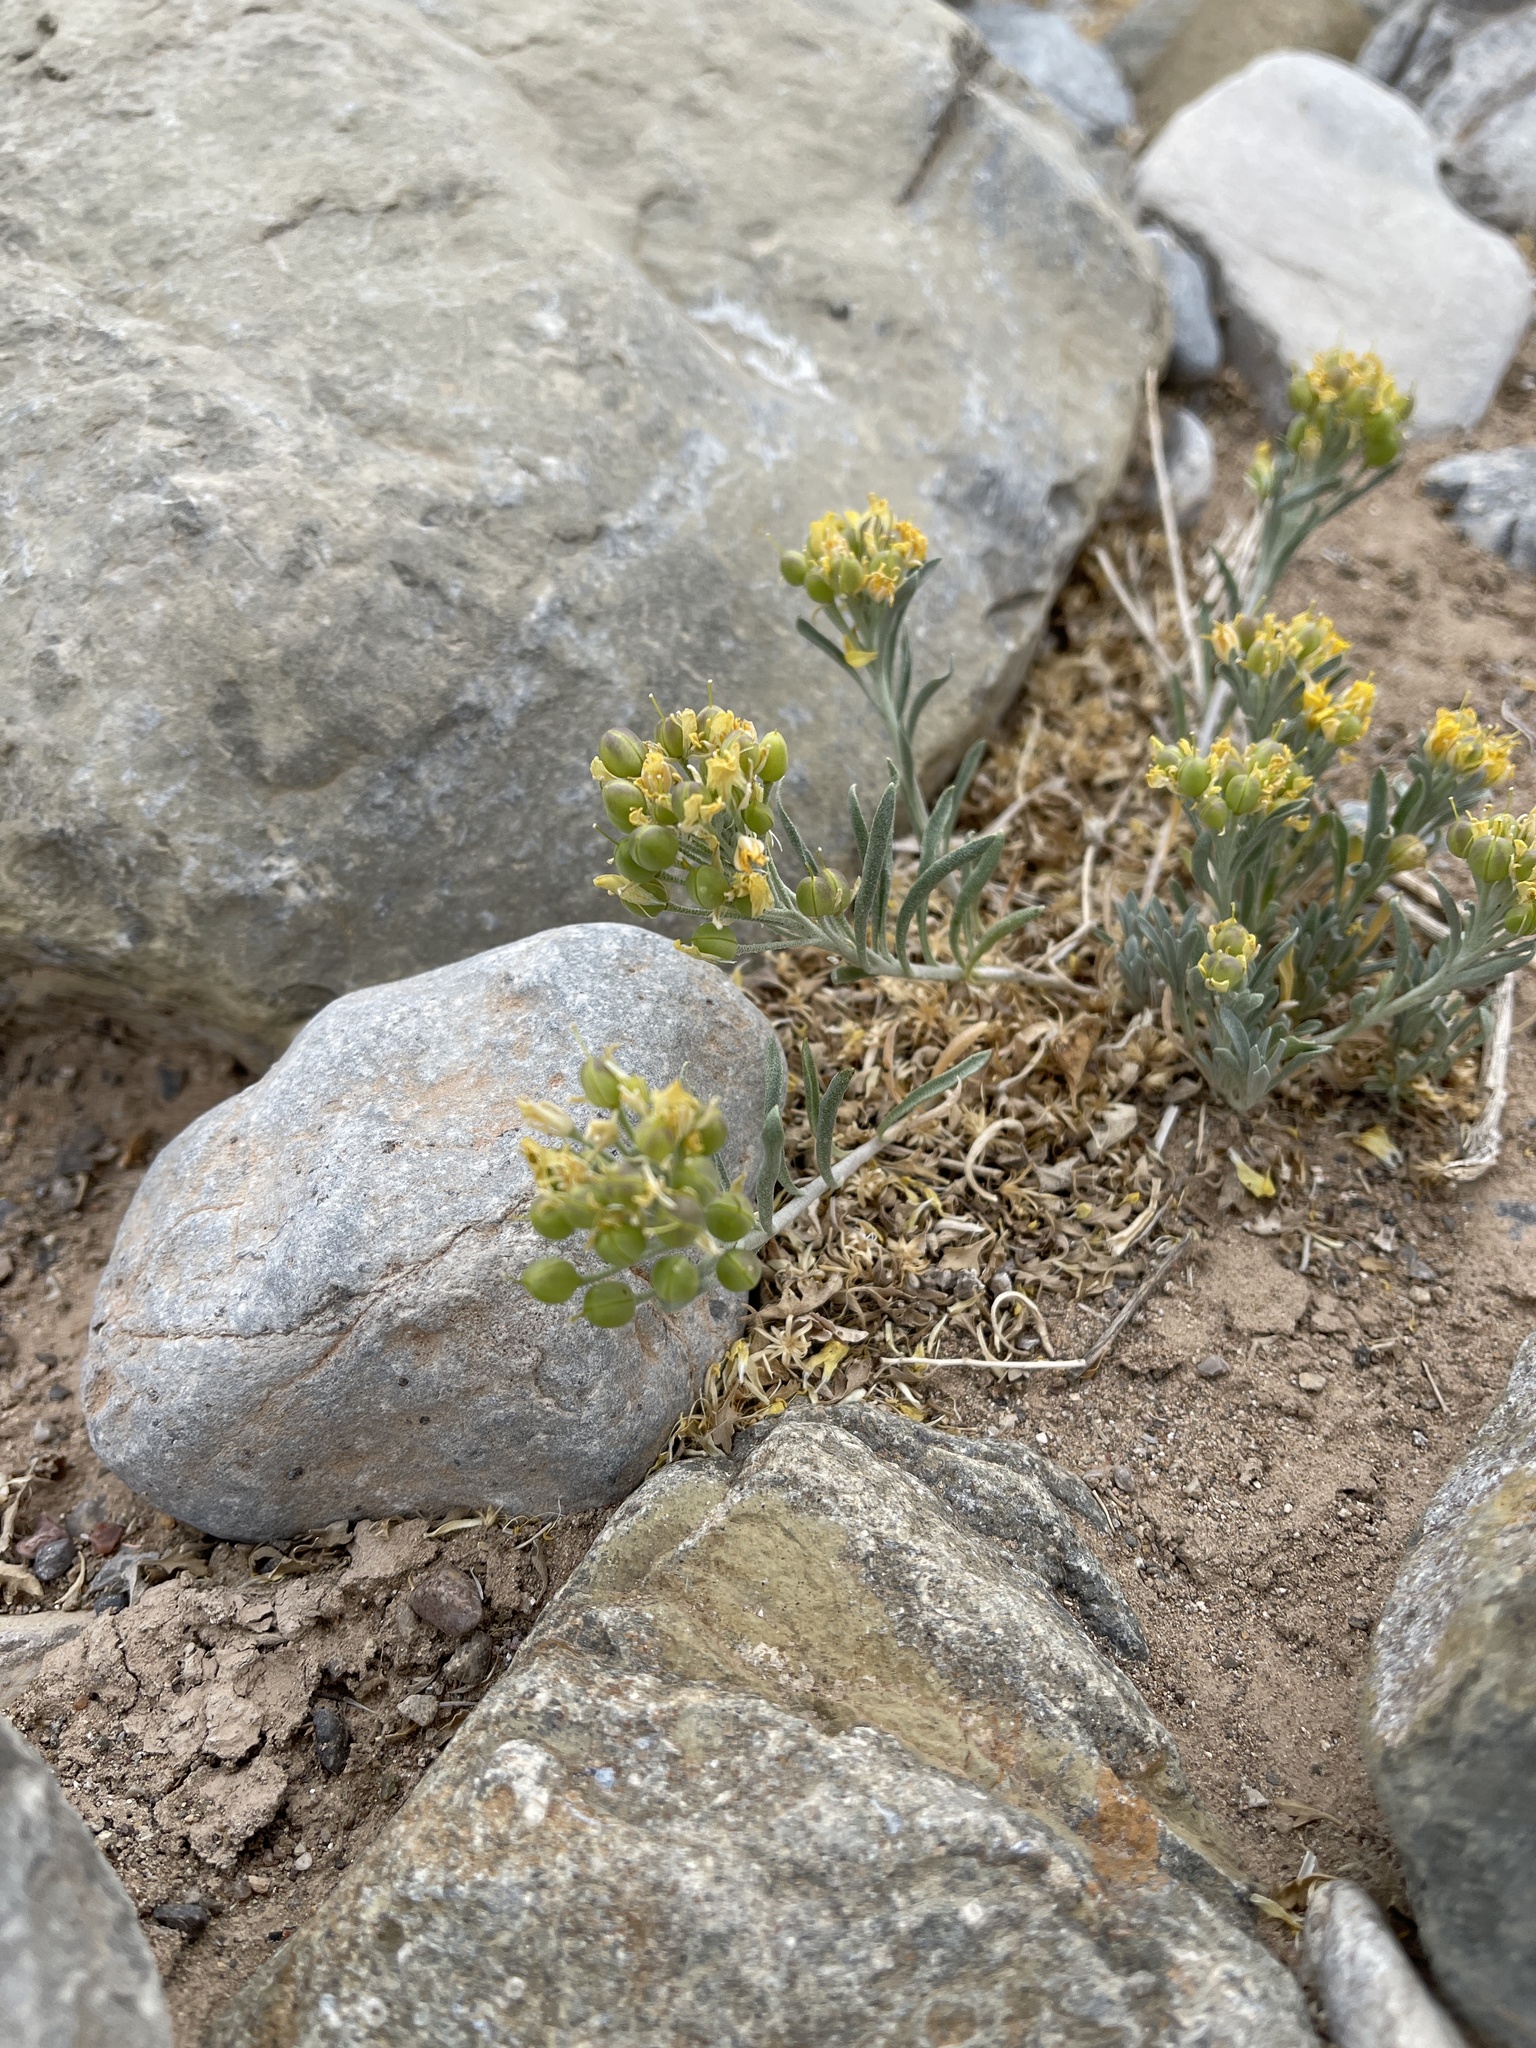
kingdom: Plantae
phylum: Tracheophyta
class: Magnoliopsida
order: Brassicales
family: Brassicaceae
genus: Physaria
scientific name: Physaria fendleri
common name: Fendler's bladderpod
